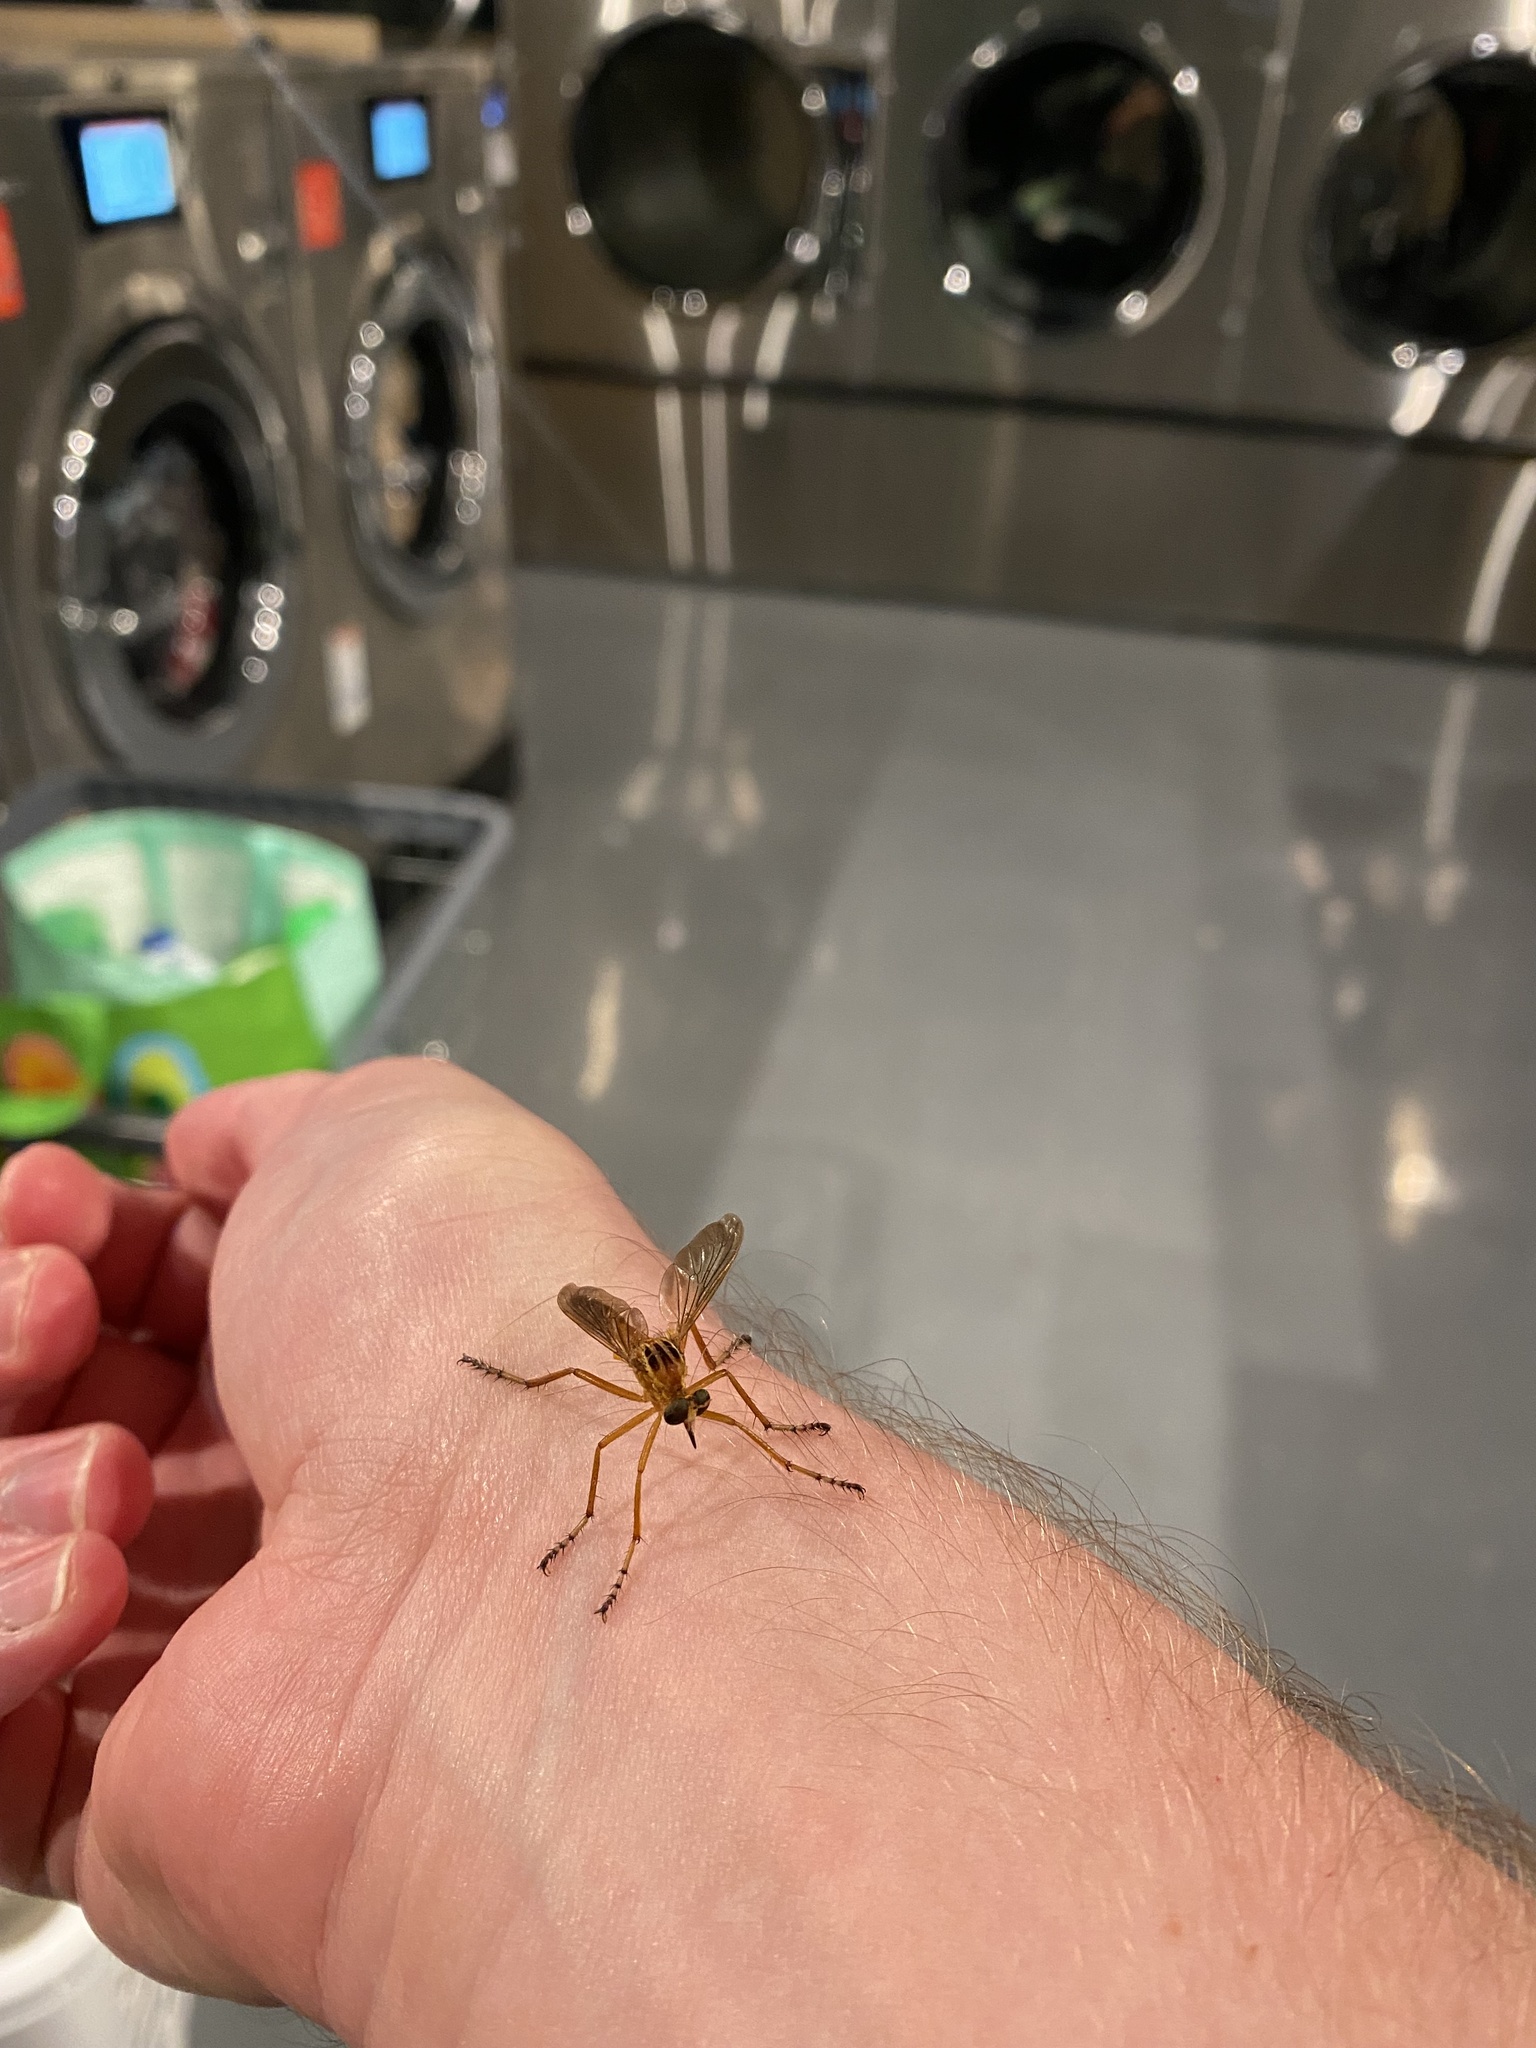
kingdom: Animalia
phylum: Arthropoda
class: Insecta
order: Diptera
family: Asilidae
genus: Diogmites
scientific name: Diogmites neoternatus
